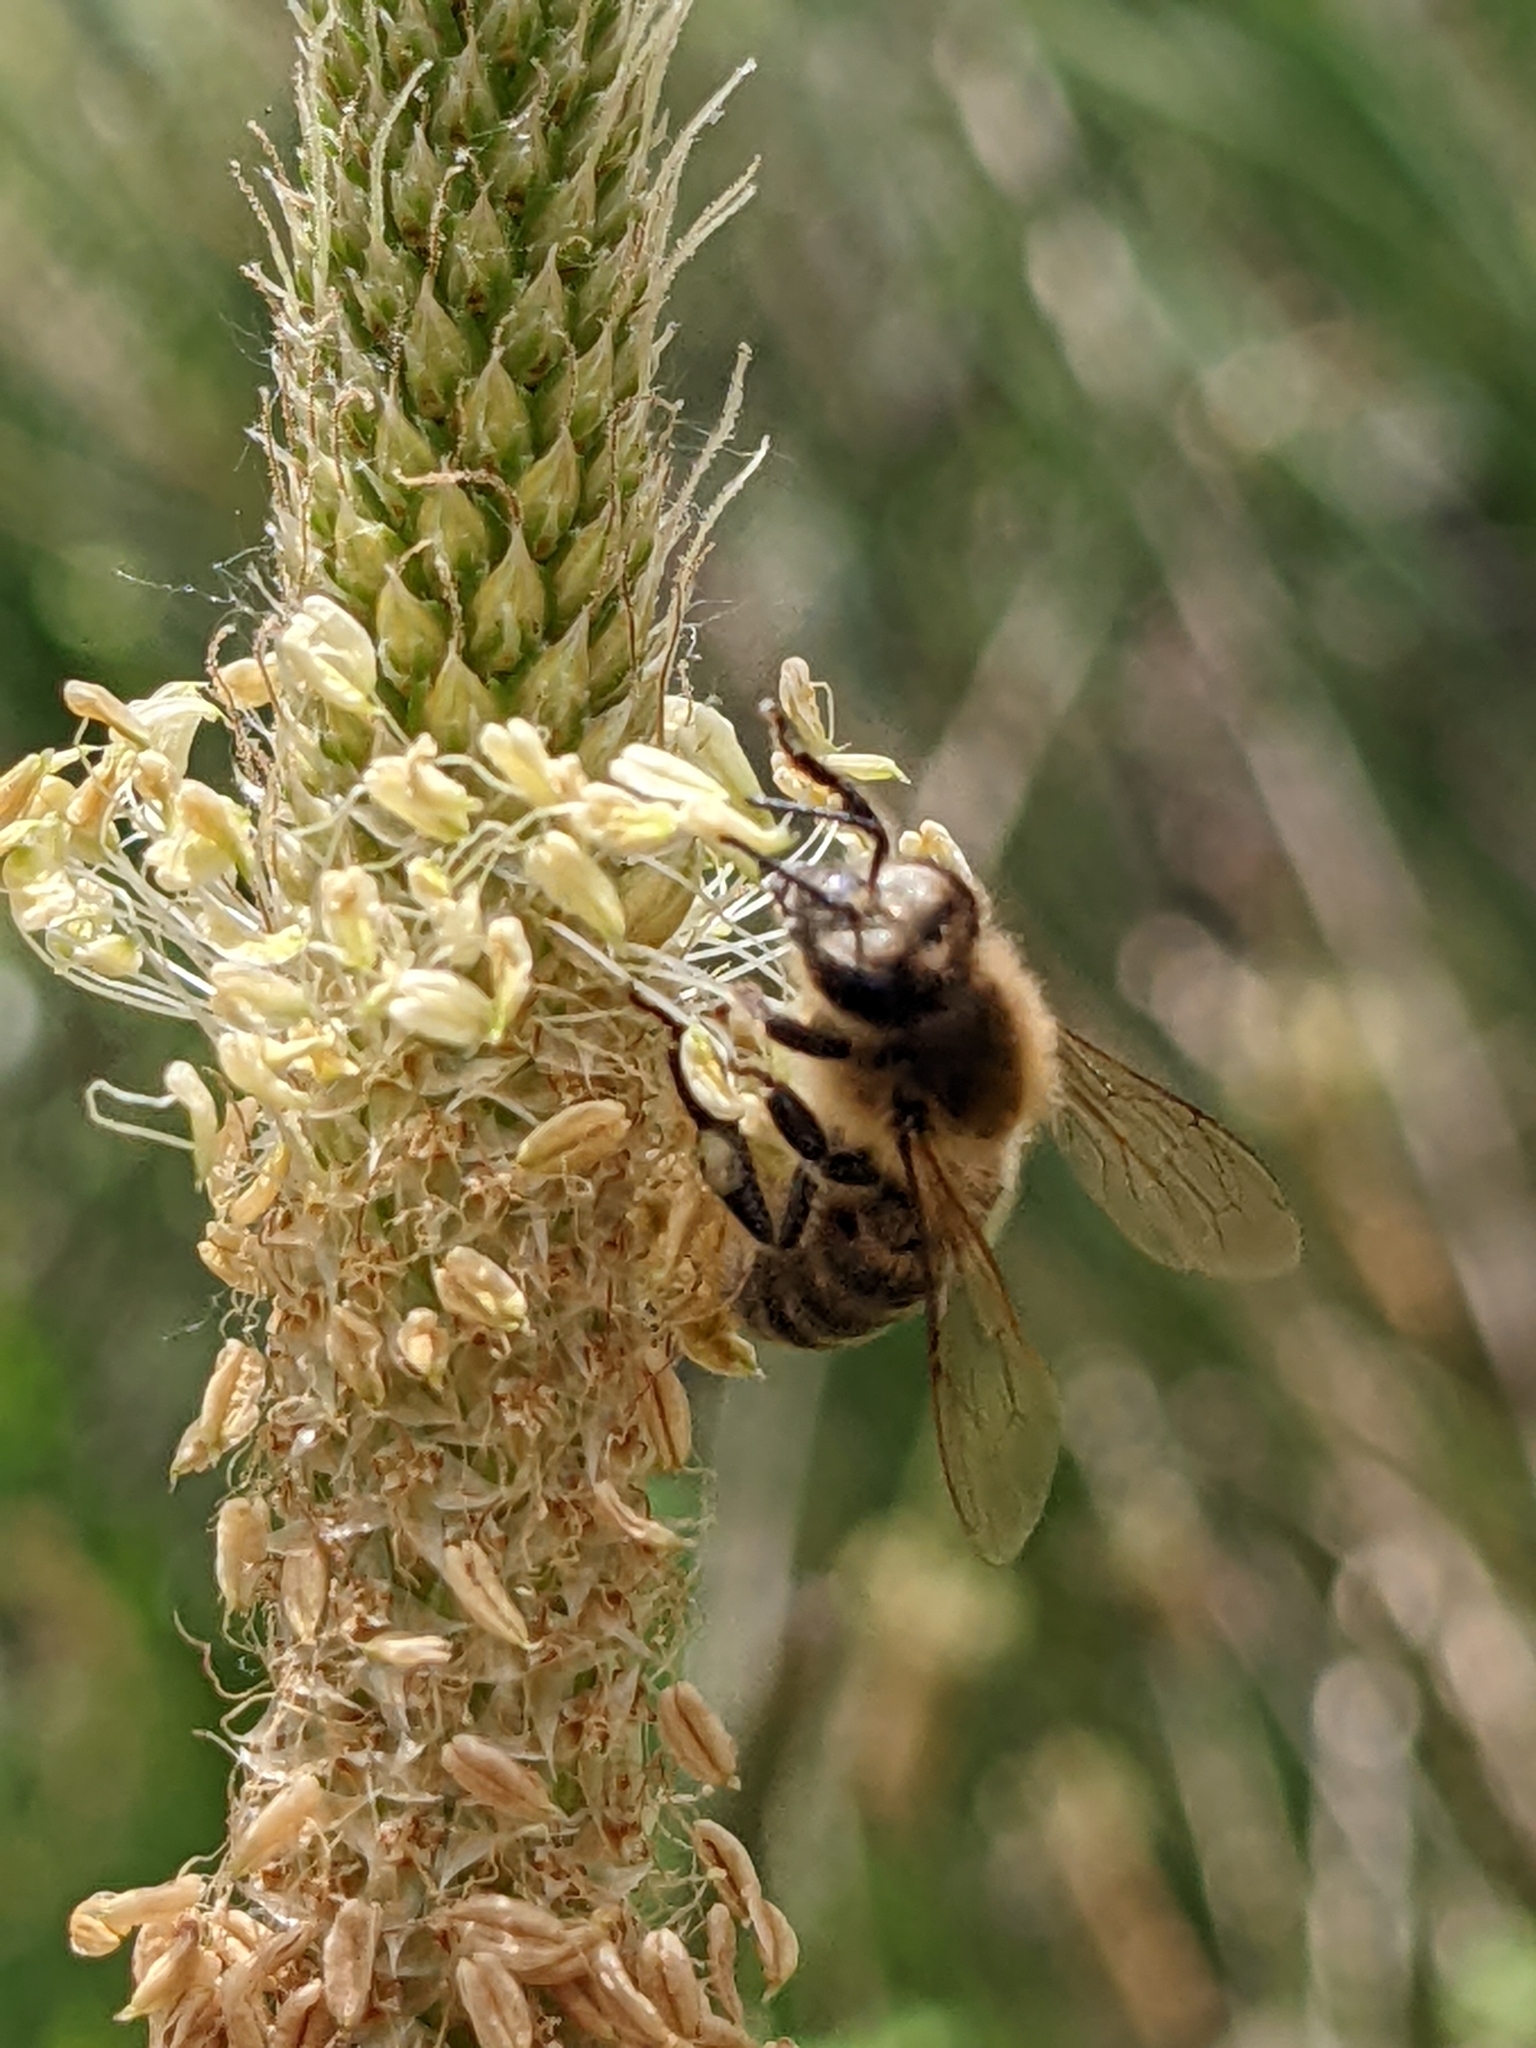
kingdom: Animalia
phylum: Arthropoda
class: Insecta
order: Hymenoptera
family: Apidae
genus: Apis
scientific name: Apis mellifera
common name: Honey bee
